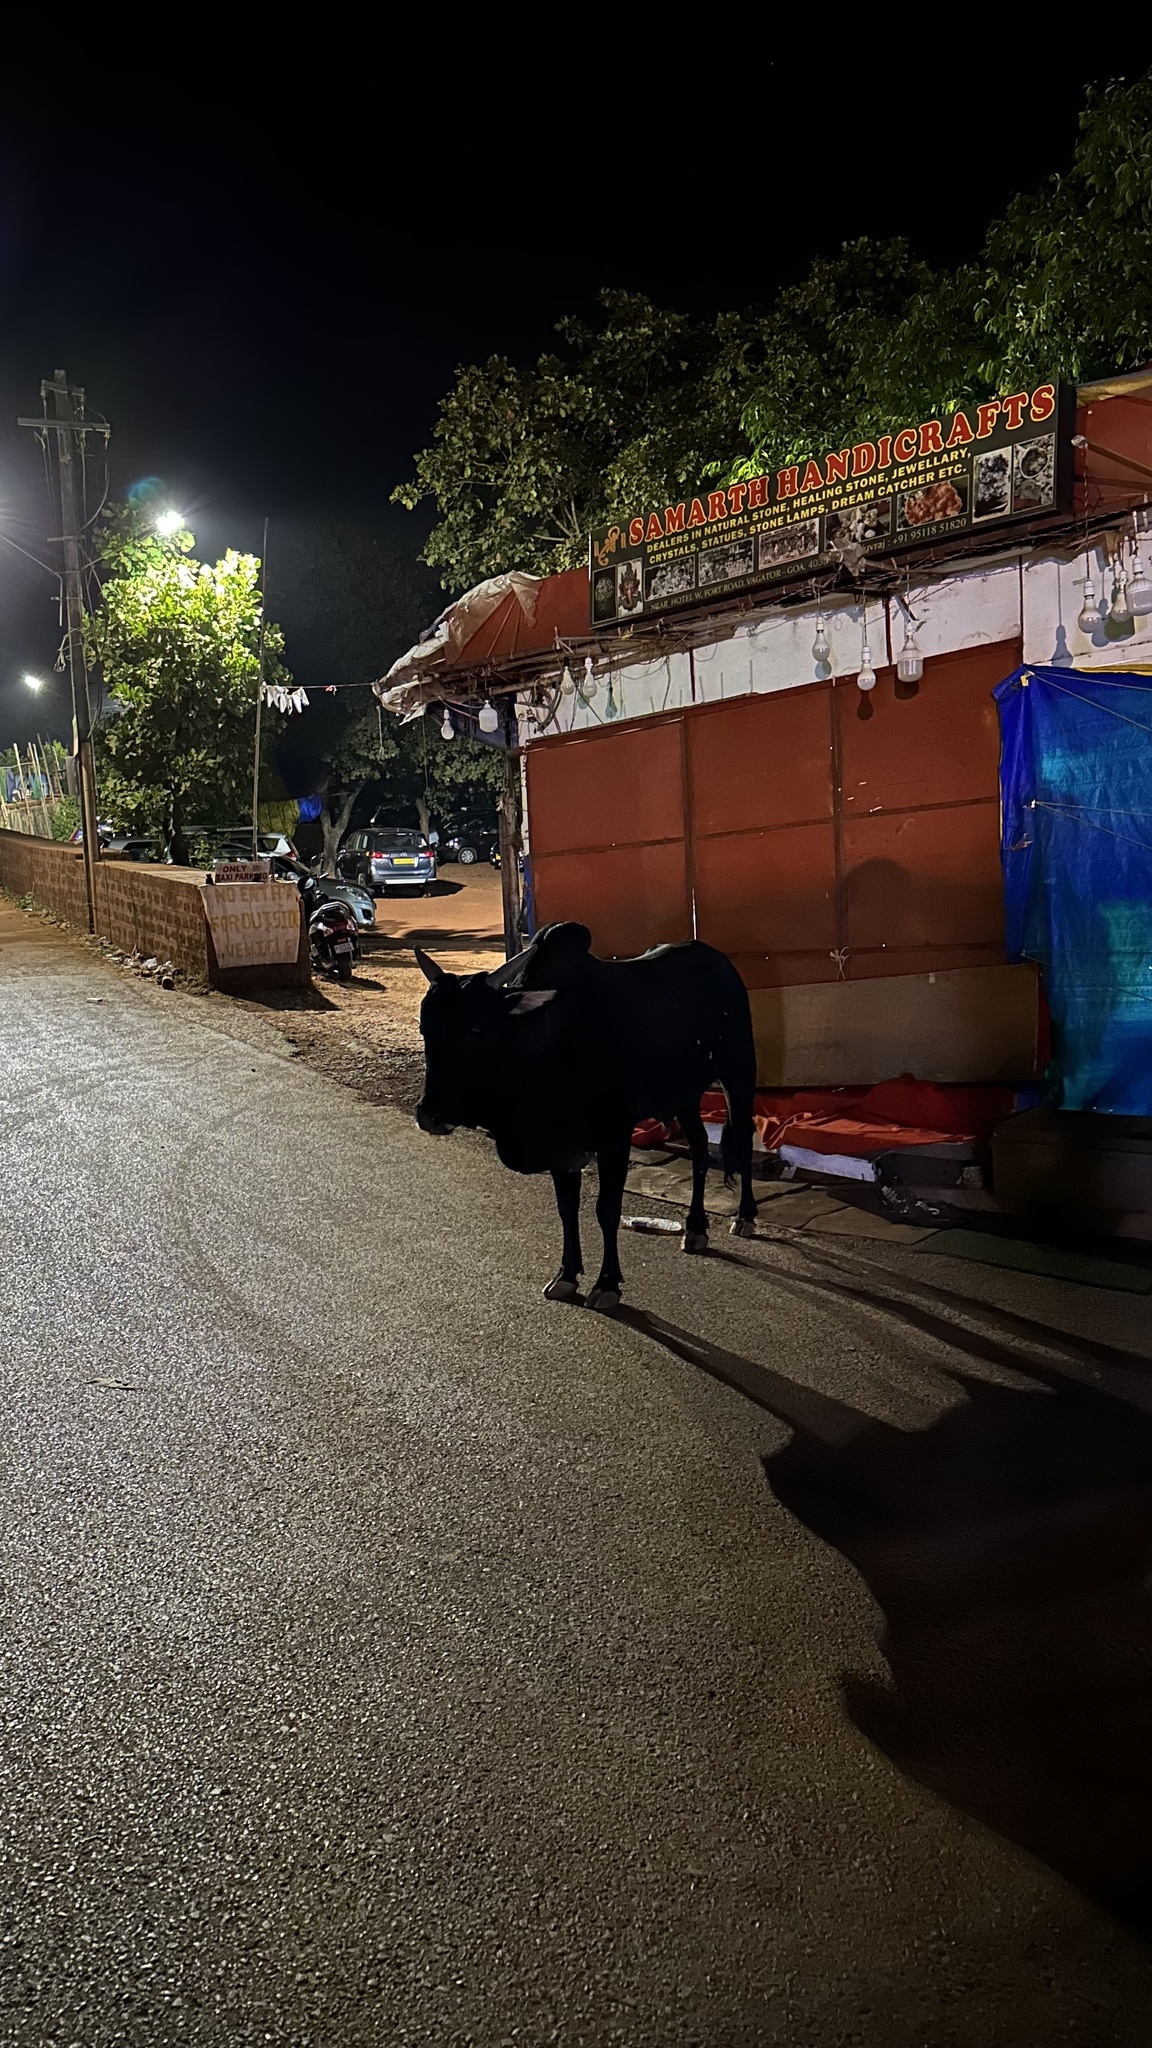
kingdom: Animalia
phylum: Chordata
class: Mammalia
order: Artiodactyla
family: Bovidae
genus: Bos
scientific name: Bos taurus
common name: Domesticated cattle
